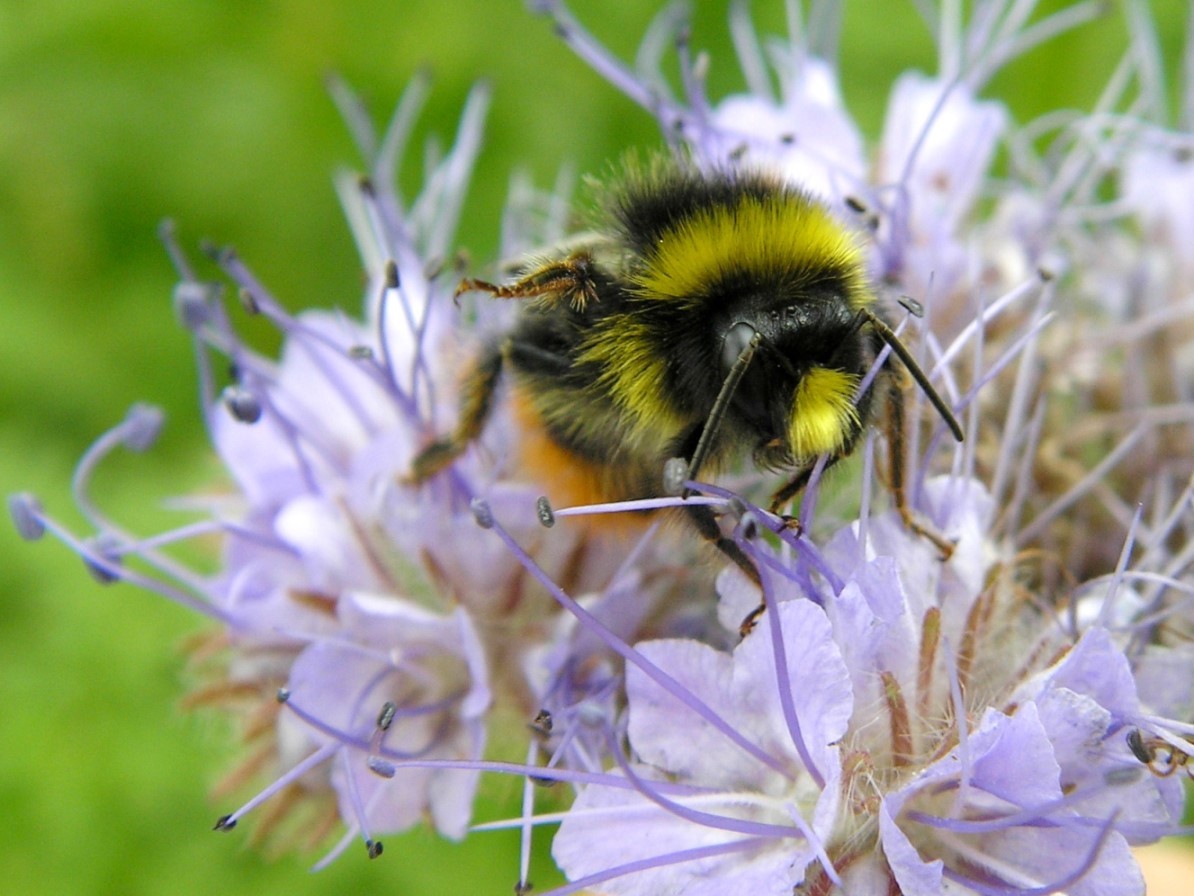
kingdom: Animalia
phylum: Arthropoda
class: Insecta
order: Hymenoptera
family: Apidae
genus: Bombus
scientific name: Bombus lapidarius
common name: Large red-tailed humble-bee
